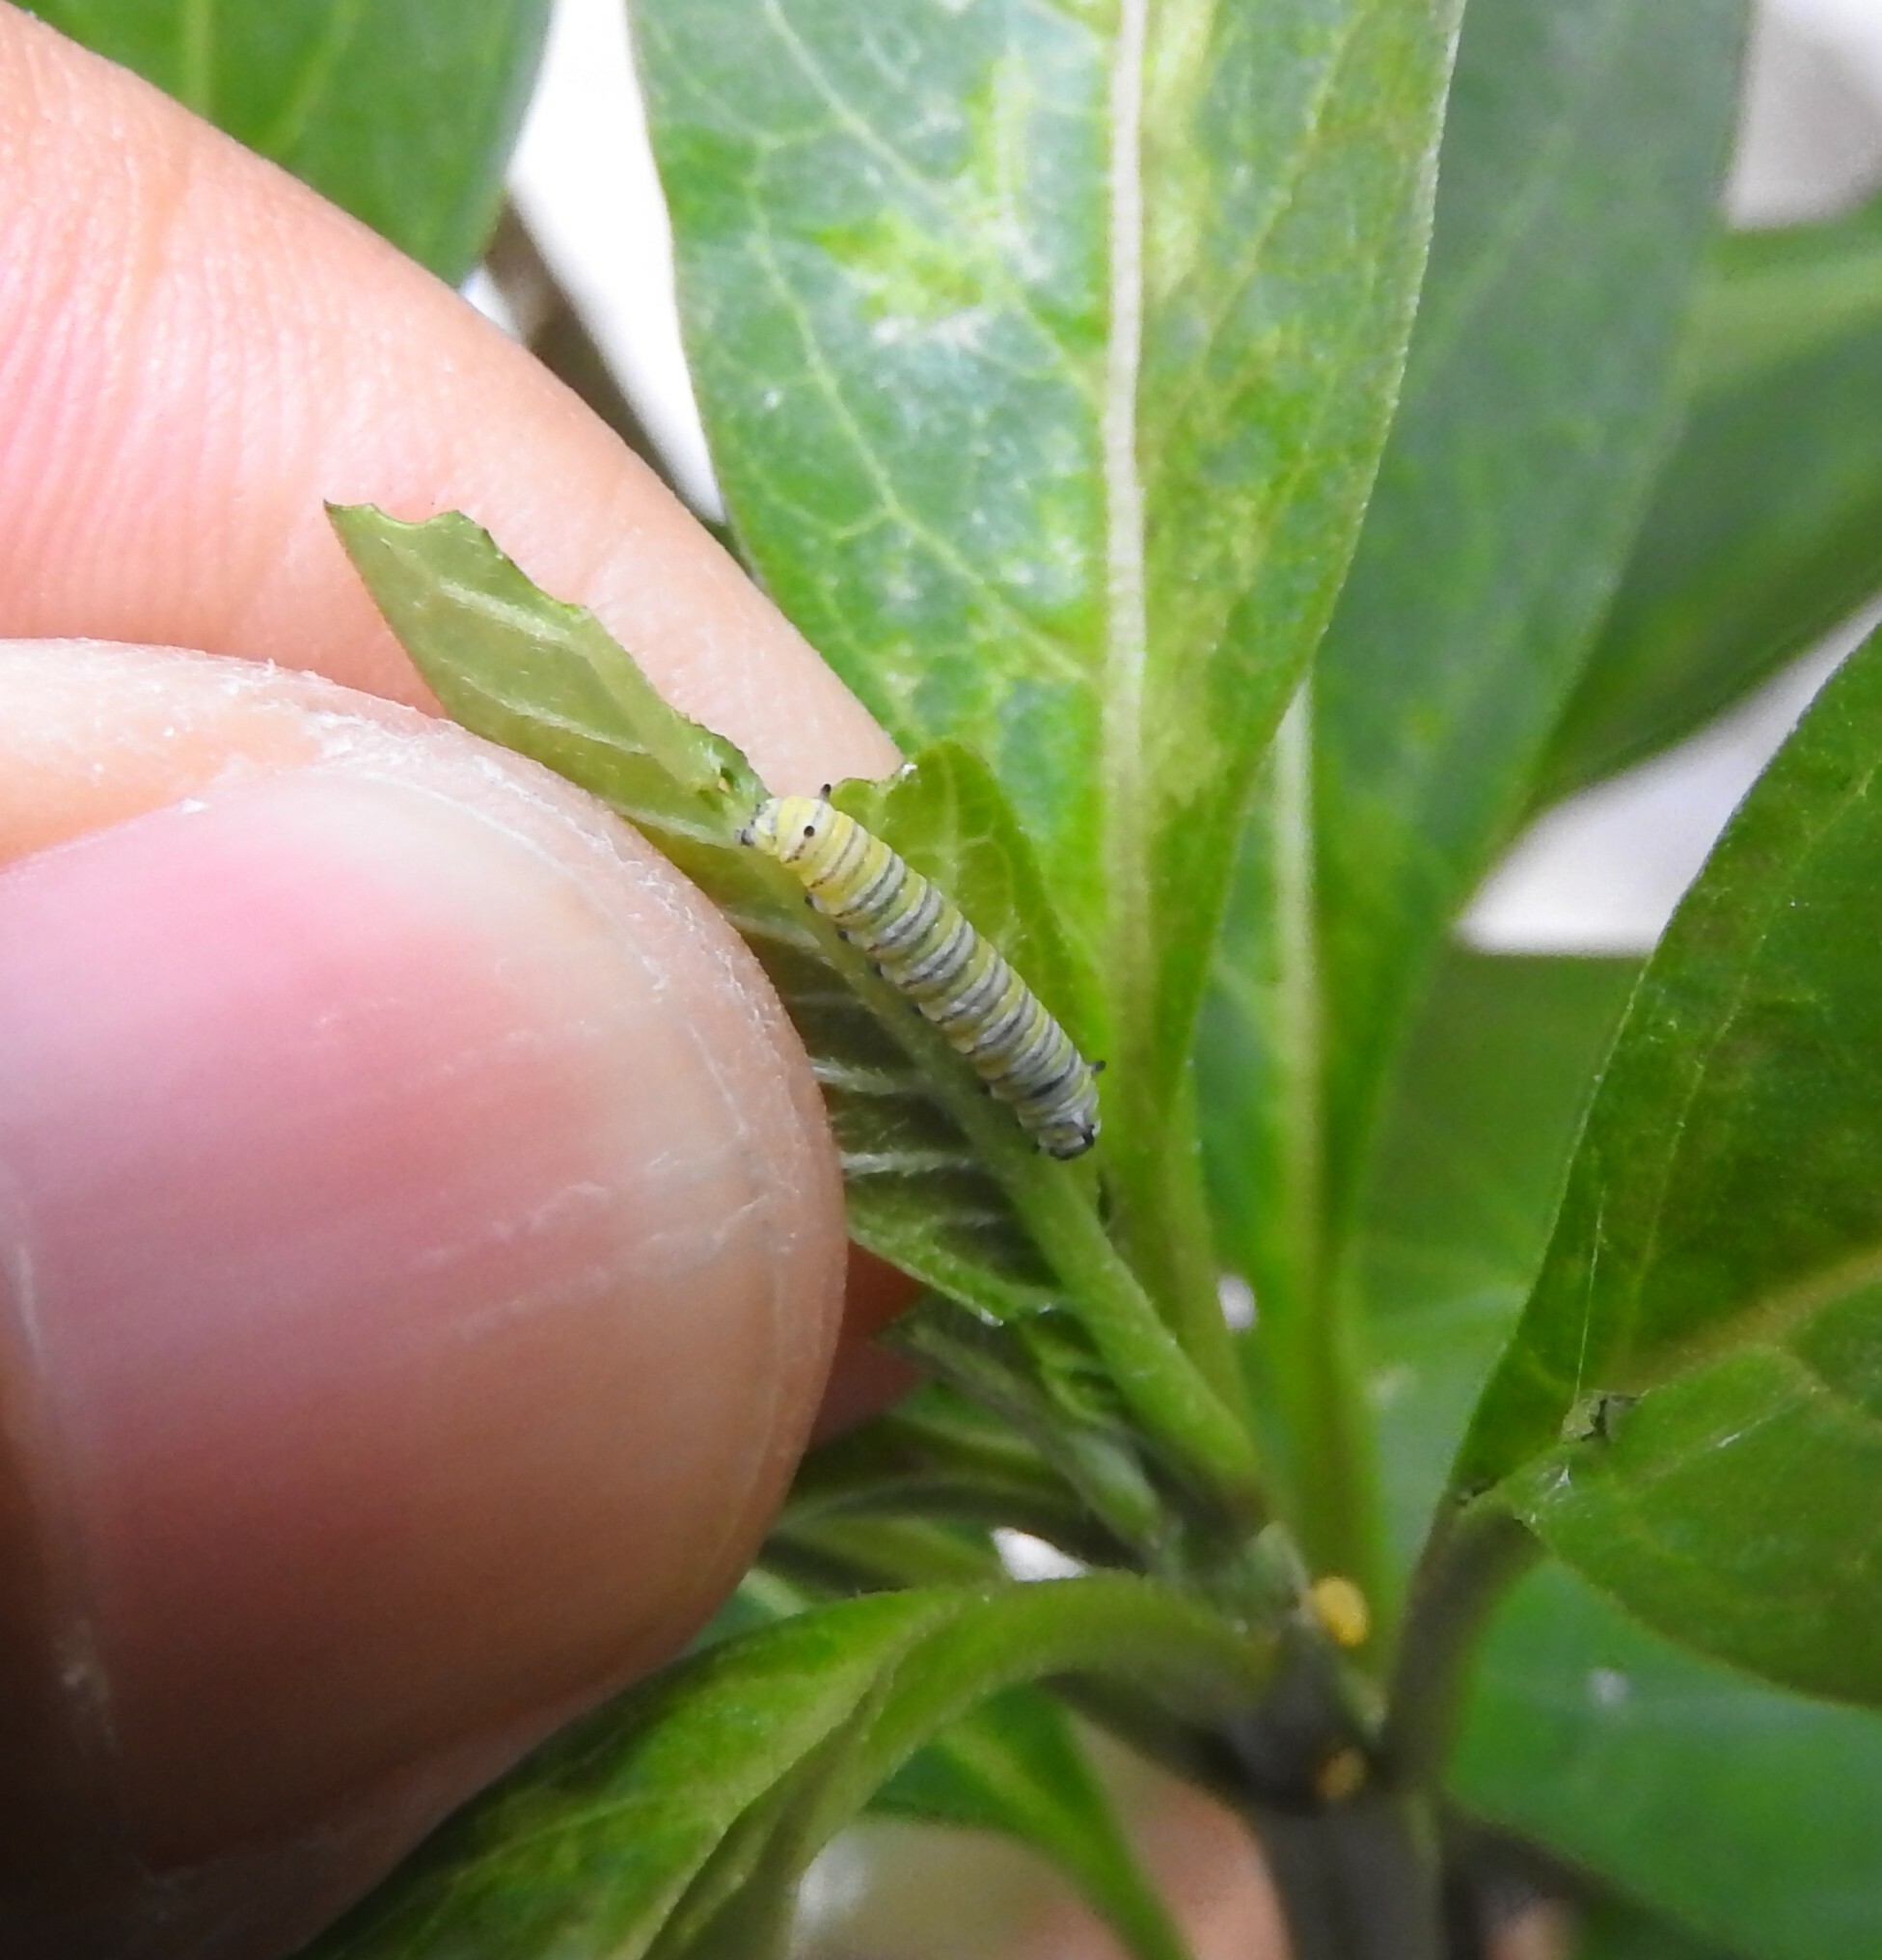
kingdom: Animalia
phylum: Arthropoda
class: Insecta
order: Lepidoptera
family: Nymphalidae
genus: Danaus
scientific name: Danaus plexippus
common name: Monarch
